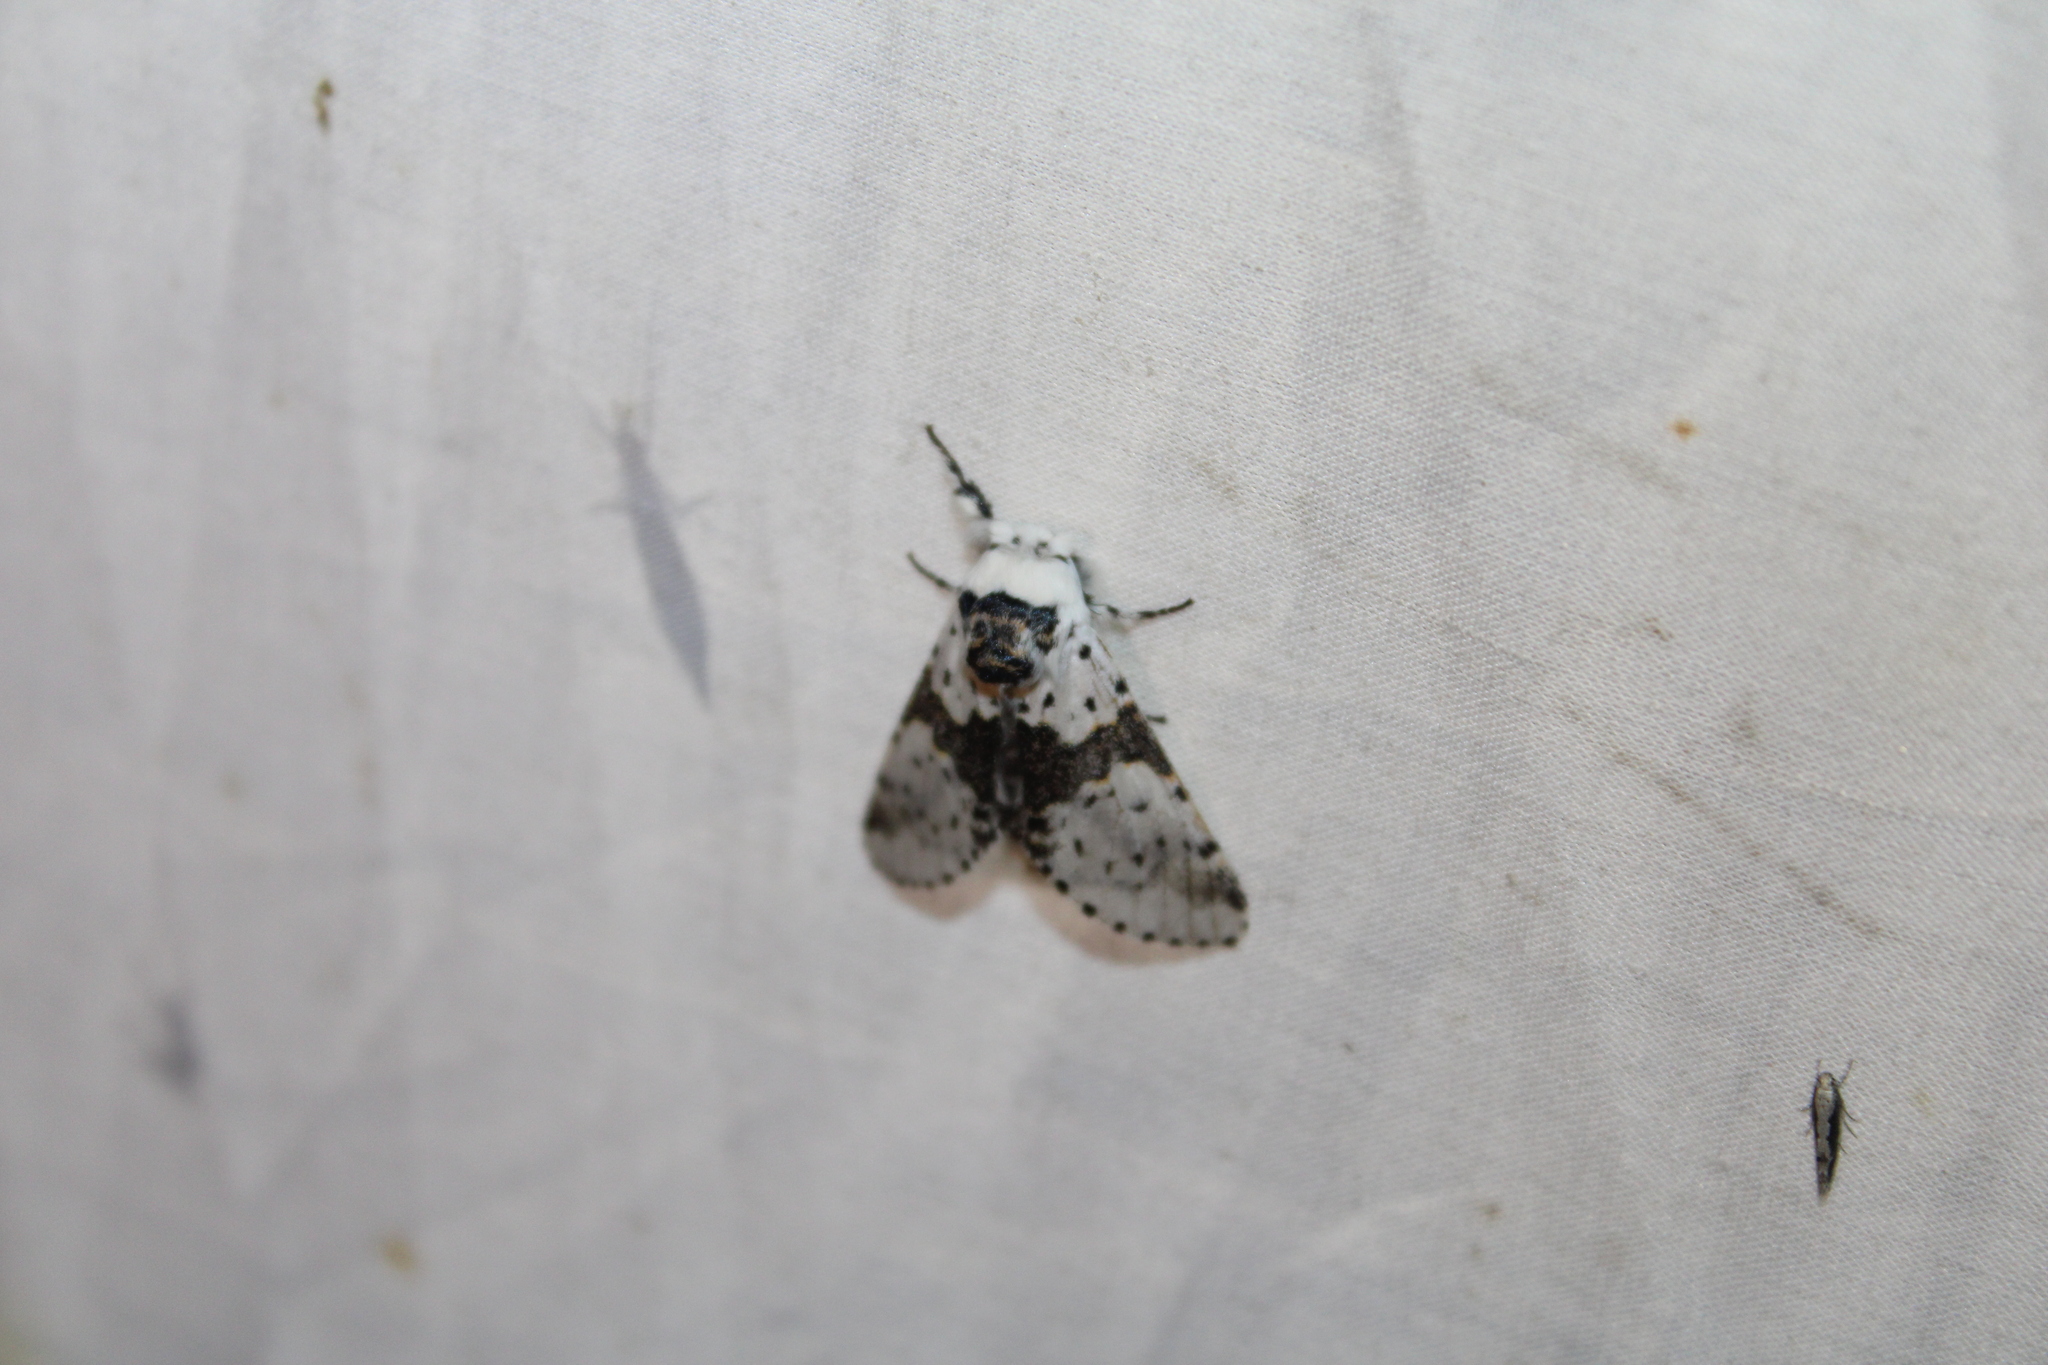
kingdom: Animalia
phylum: Arthropoda
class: Insecta
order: Lepidoptera
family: Notodontidae
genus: Furcula
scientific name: Furcula borealis
